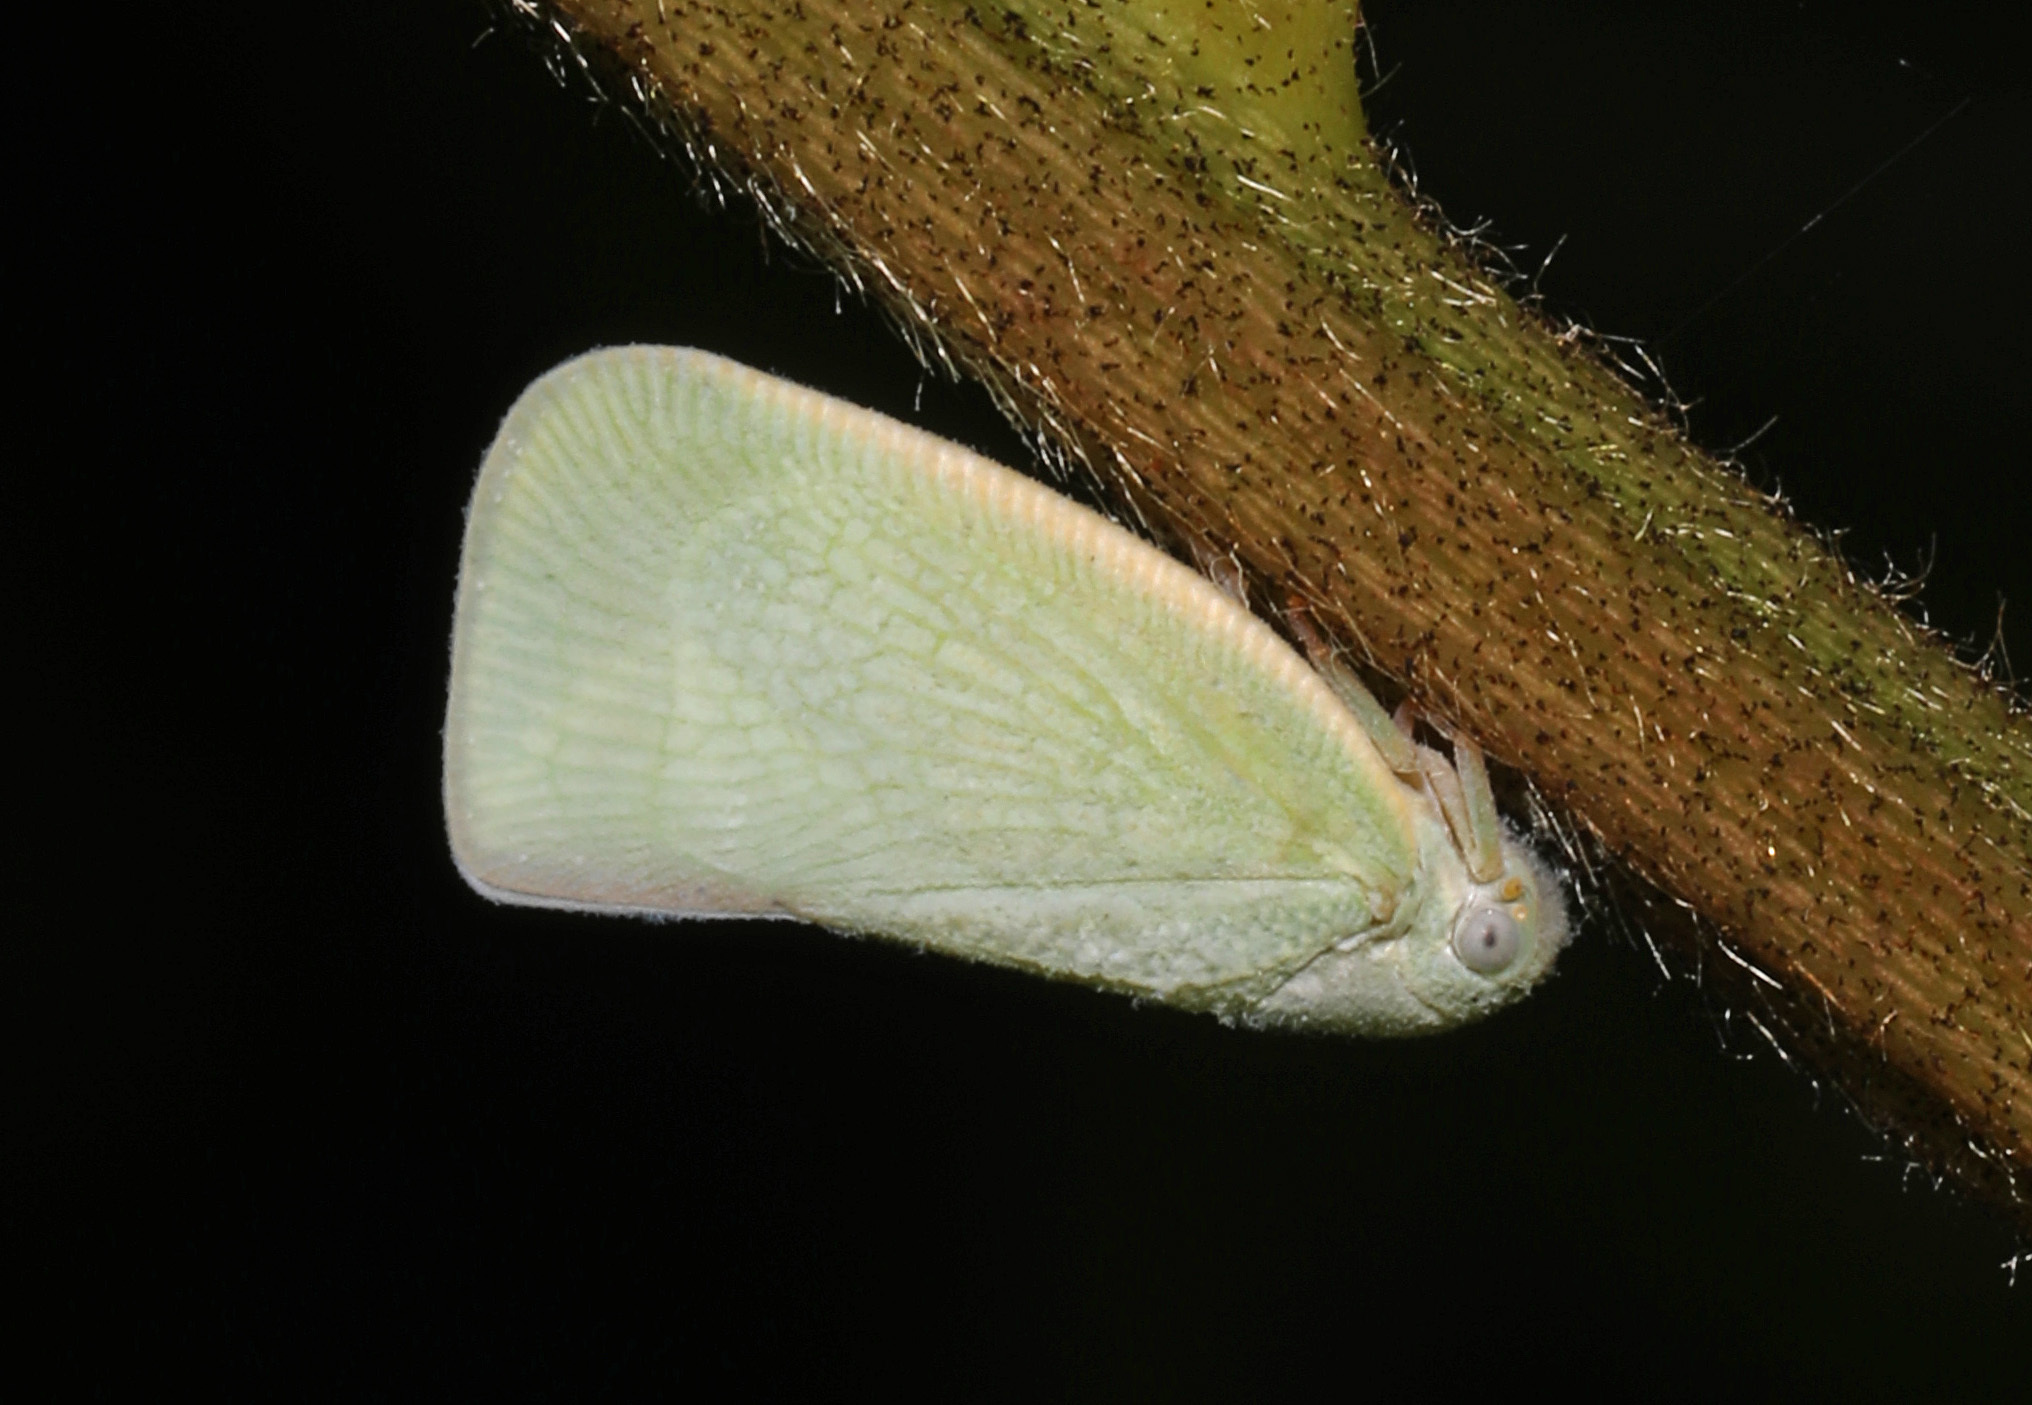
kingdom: Animalia
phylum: Arthropoda
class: Insecta
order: Hemiptera
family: Flatidae
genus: Flatormenis
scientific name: Flatormenis proxima
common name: Northern flatid planthopper
